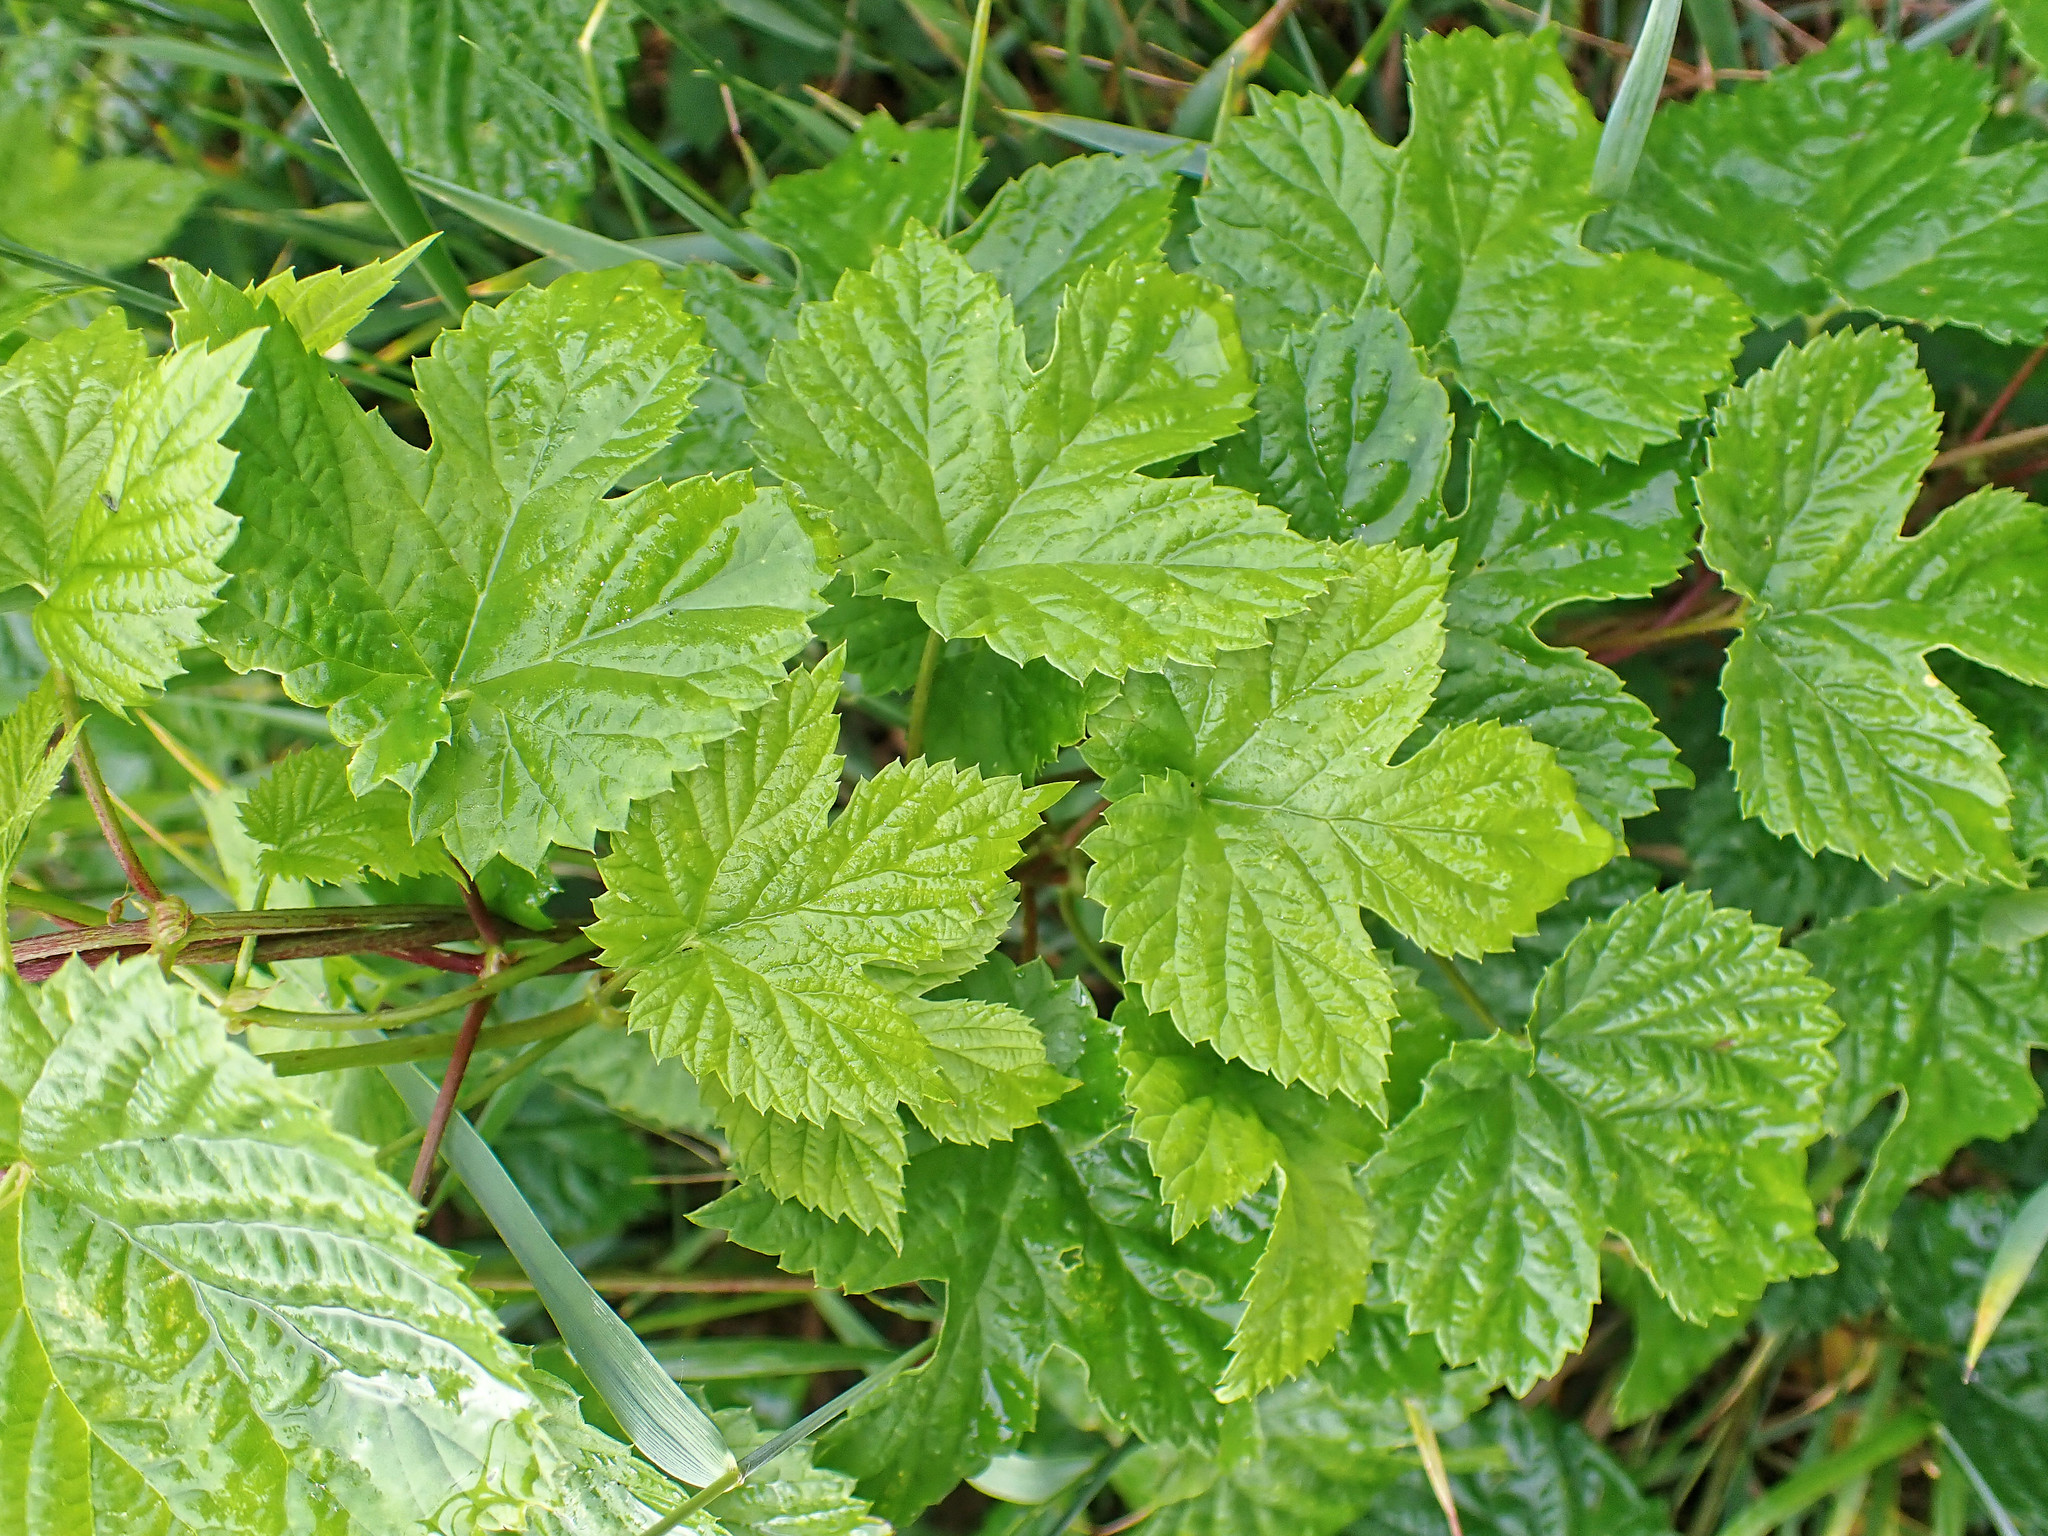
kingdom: Plantae
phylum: Tracheophyta
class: Magnoliopsida
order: Rosales
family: Cannabaceae
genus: Humulus
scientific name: Humulus lupulus
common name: Hop
